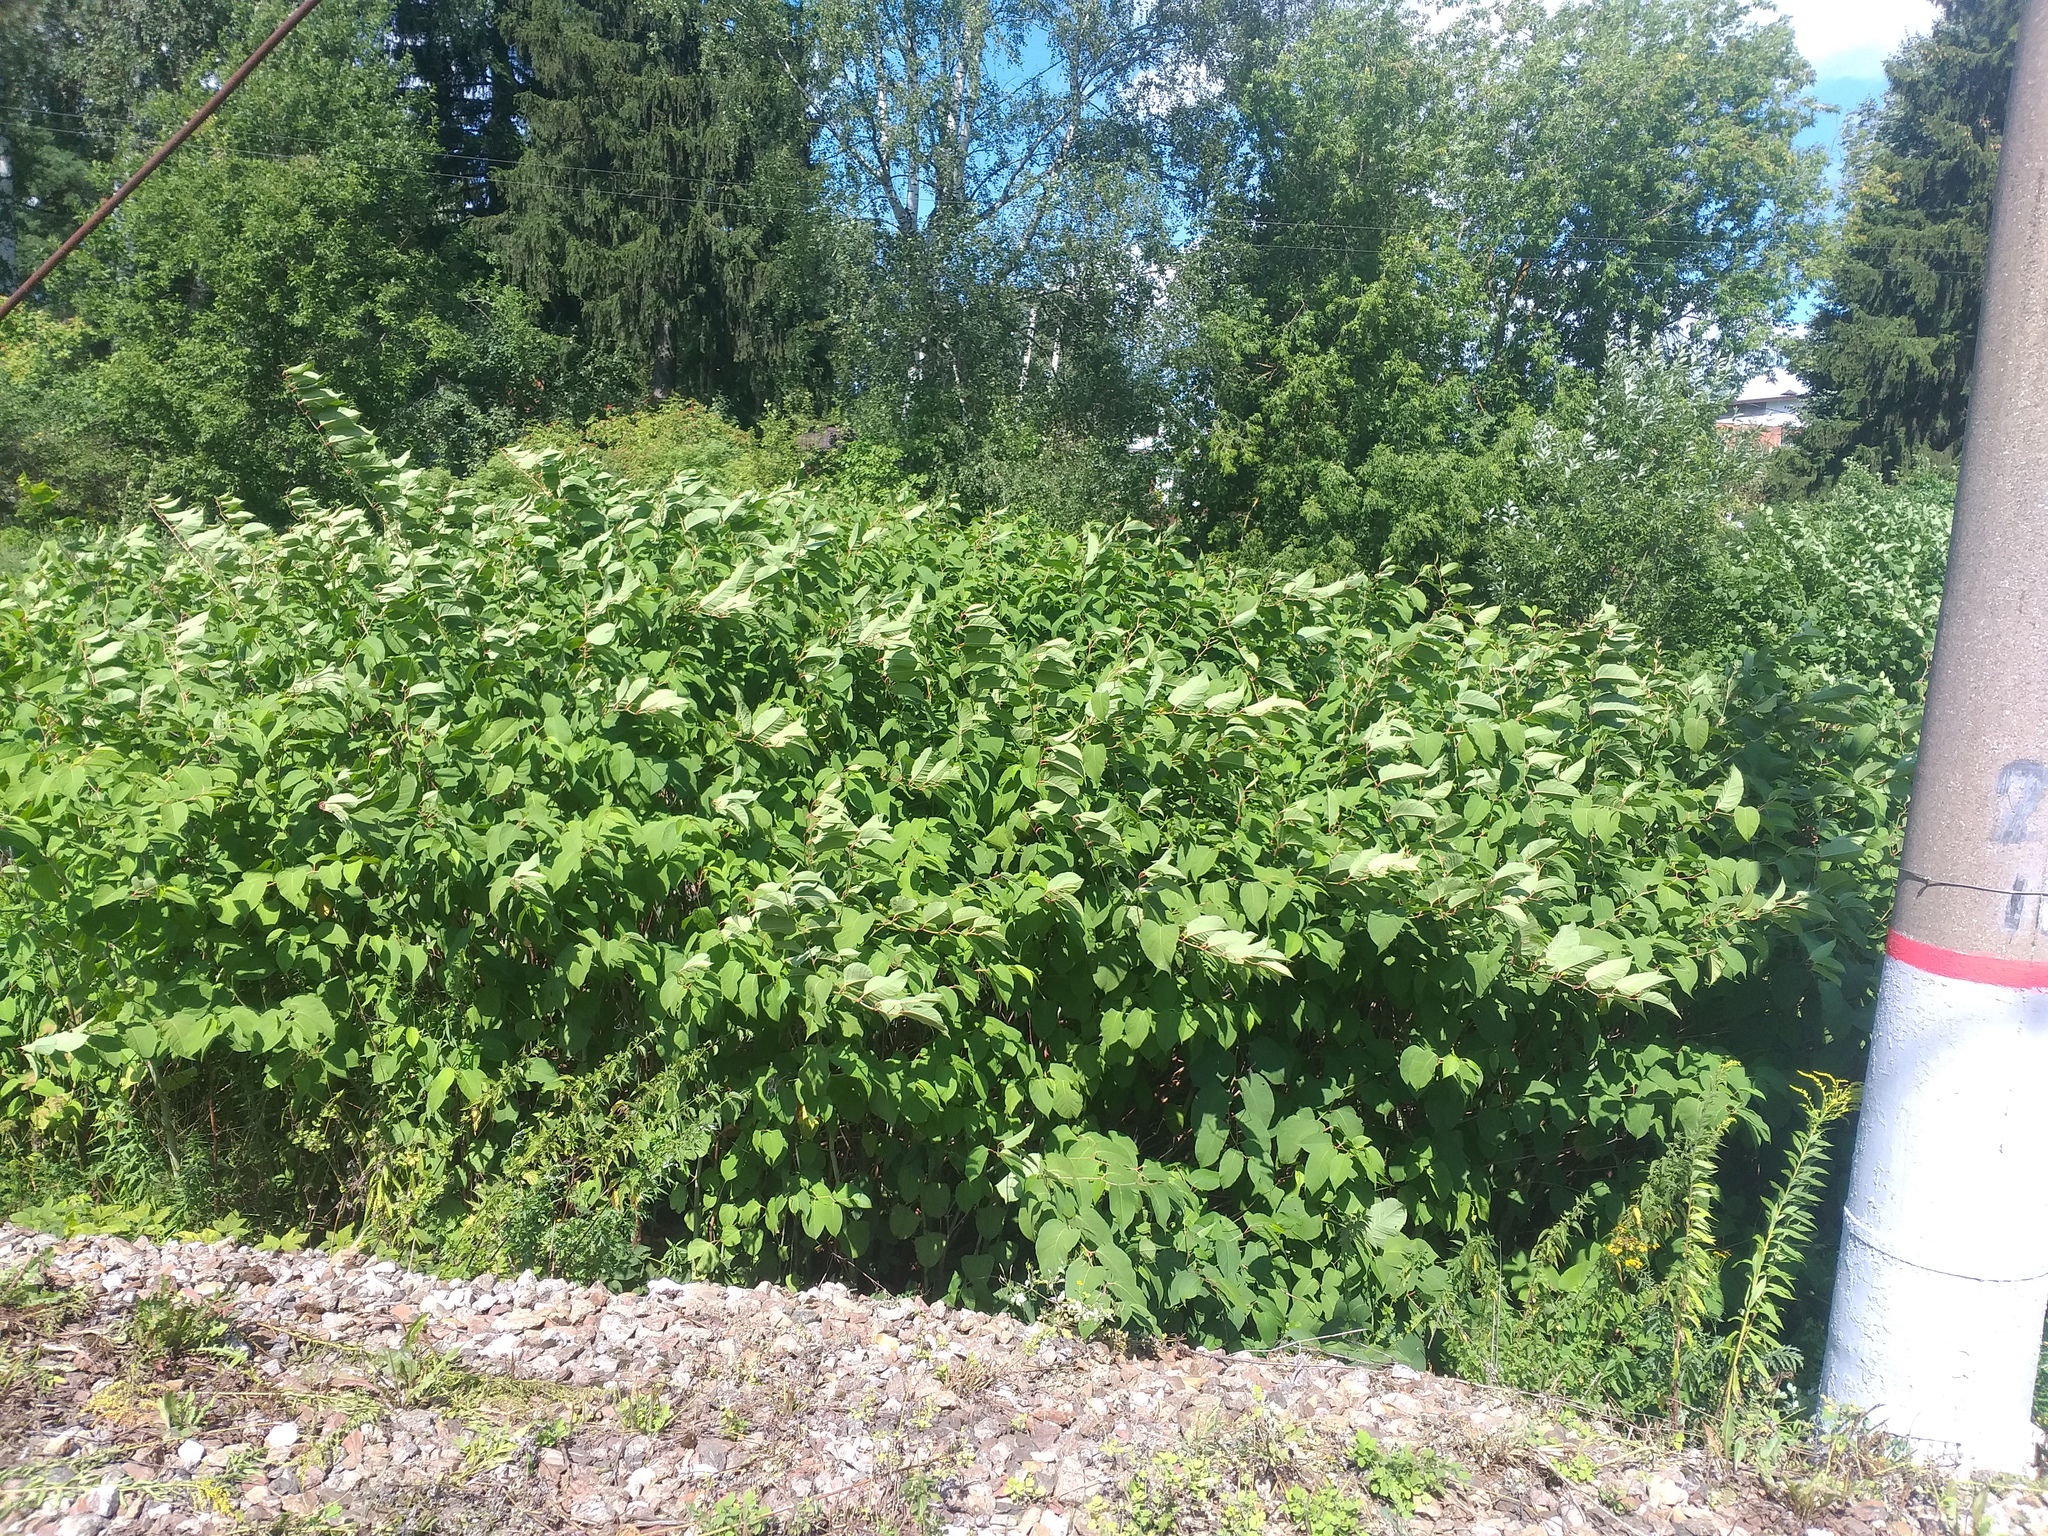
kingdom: Plantae
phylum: Tracheophyta
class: Magnoliopsida
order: Caryophyllales
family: Polygonaceae
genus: Reynoutria
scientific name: Reynoutria bohemica
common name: Bohemian knotweed
